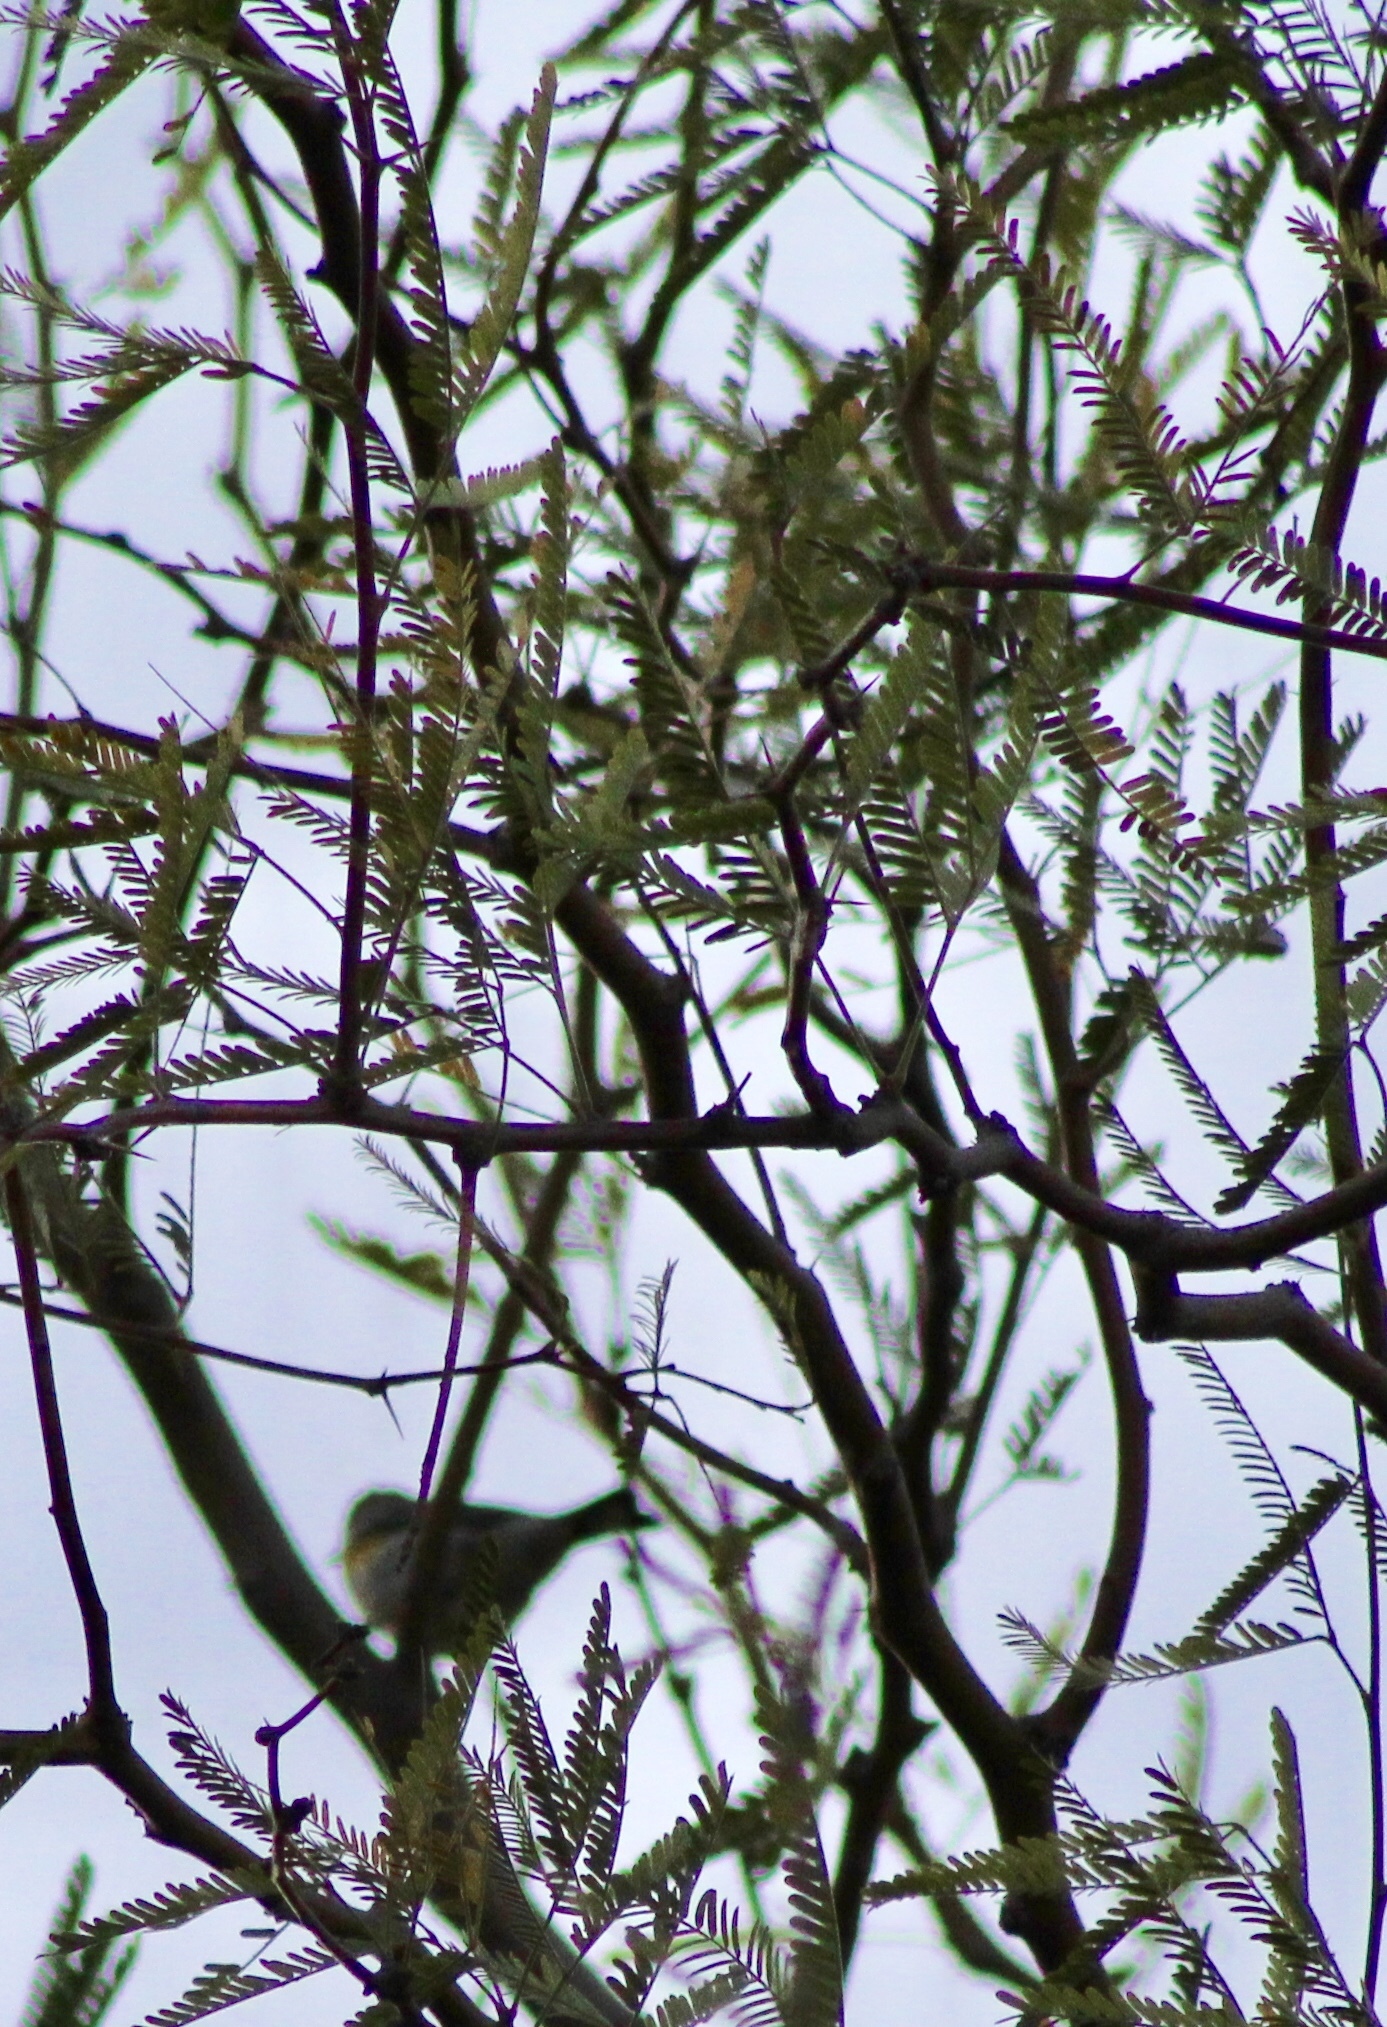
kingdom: Animalia
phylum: Chordata
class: Aves
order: Passeriformes
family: Parulidae
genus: Setophaga
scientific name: Setophaga auduboni
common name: Audubon's warbler
